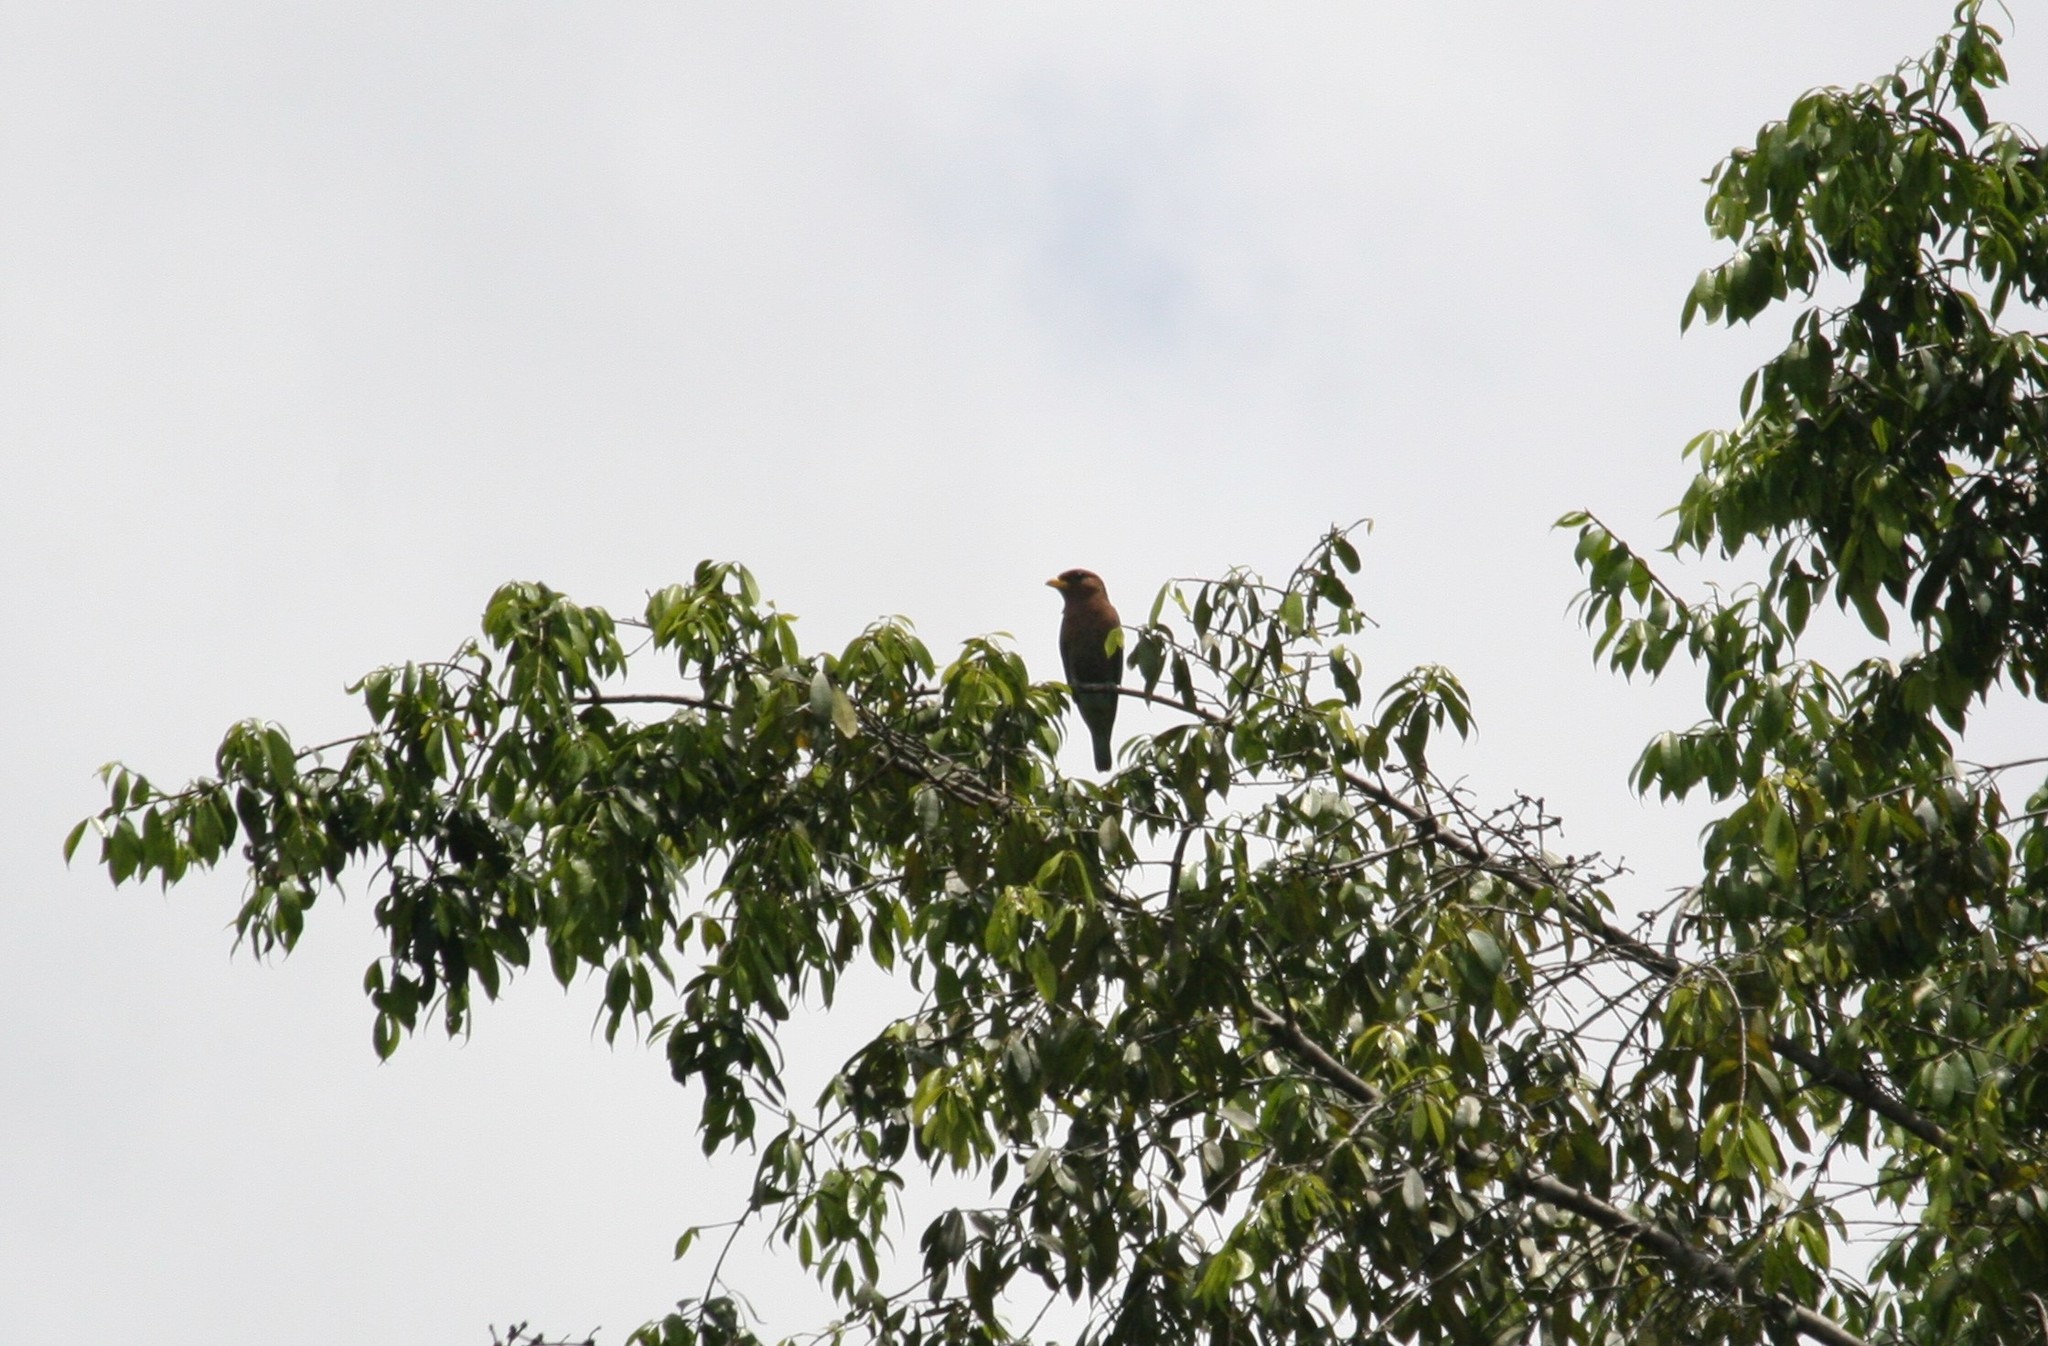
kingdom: Animalia
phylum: Chordata
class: Aves
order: Coraciiformes
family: Coraciidae
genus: Eurystomus
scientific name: Eurystomus glaucurus
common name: Broad-billed roller
